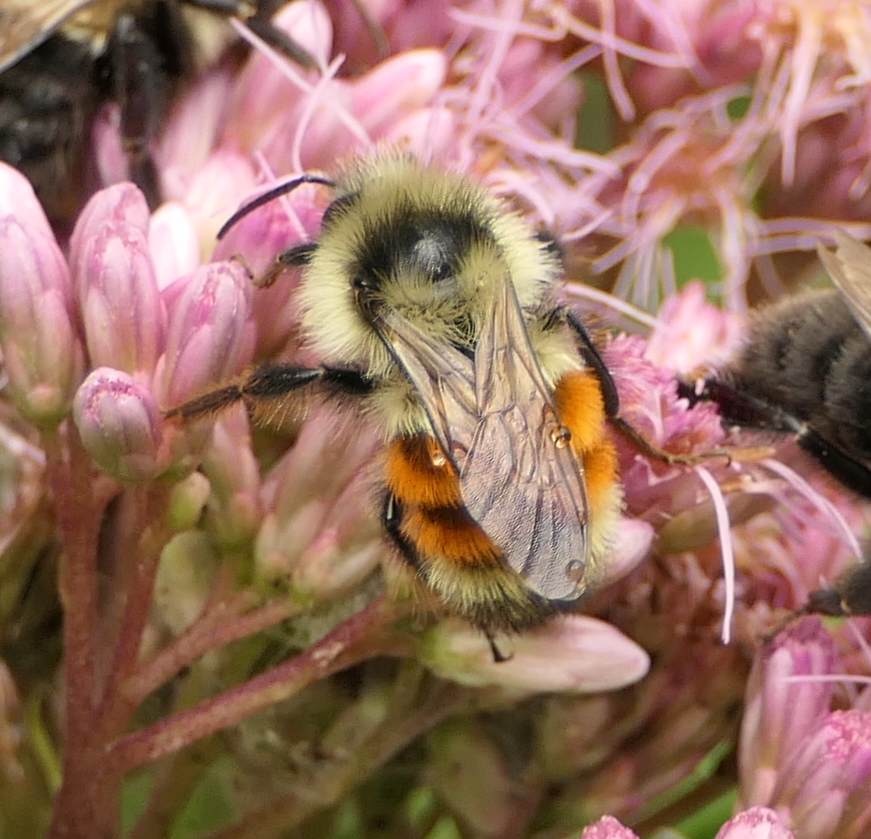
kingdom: Animalia
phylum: Arthropoda
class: Insecta
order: Hymenoptera
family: Apidae
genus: Bombus
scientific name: Bombus ternarius
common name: Tri-colored bumble bee
